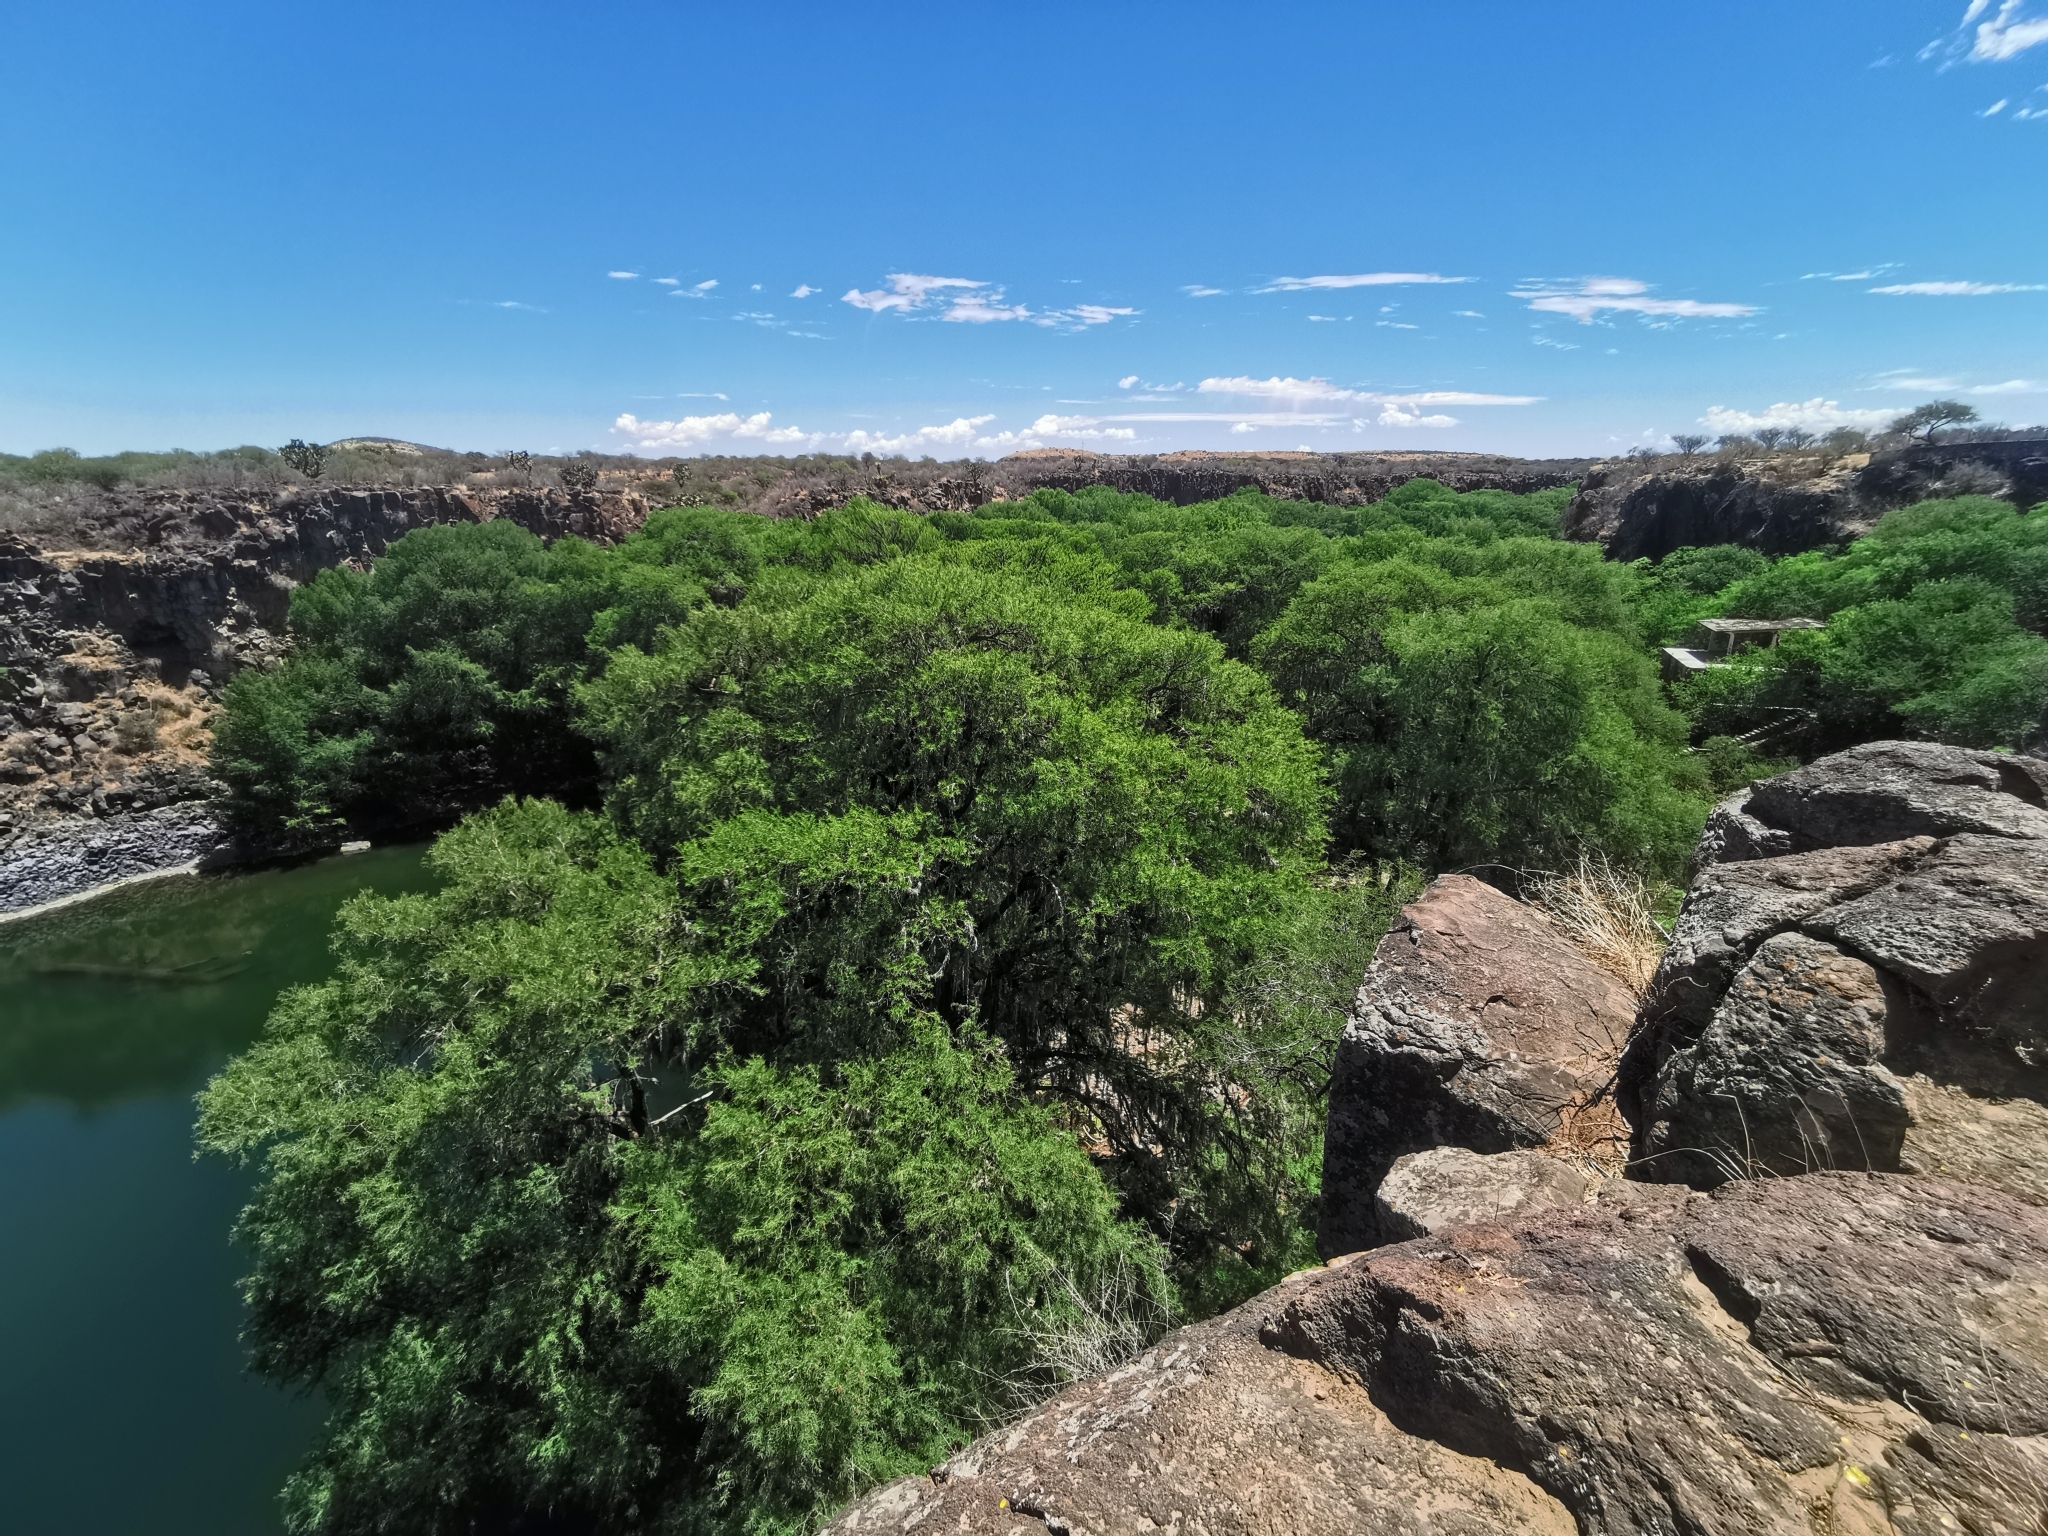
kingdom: Plantae
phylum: Tracheophyta
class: Pinopsida
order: Pinales
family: Cupressaceae
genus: Taxodium
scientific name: Taxodium mucronatum
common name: Montezume bald cypress
